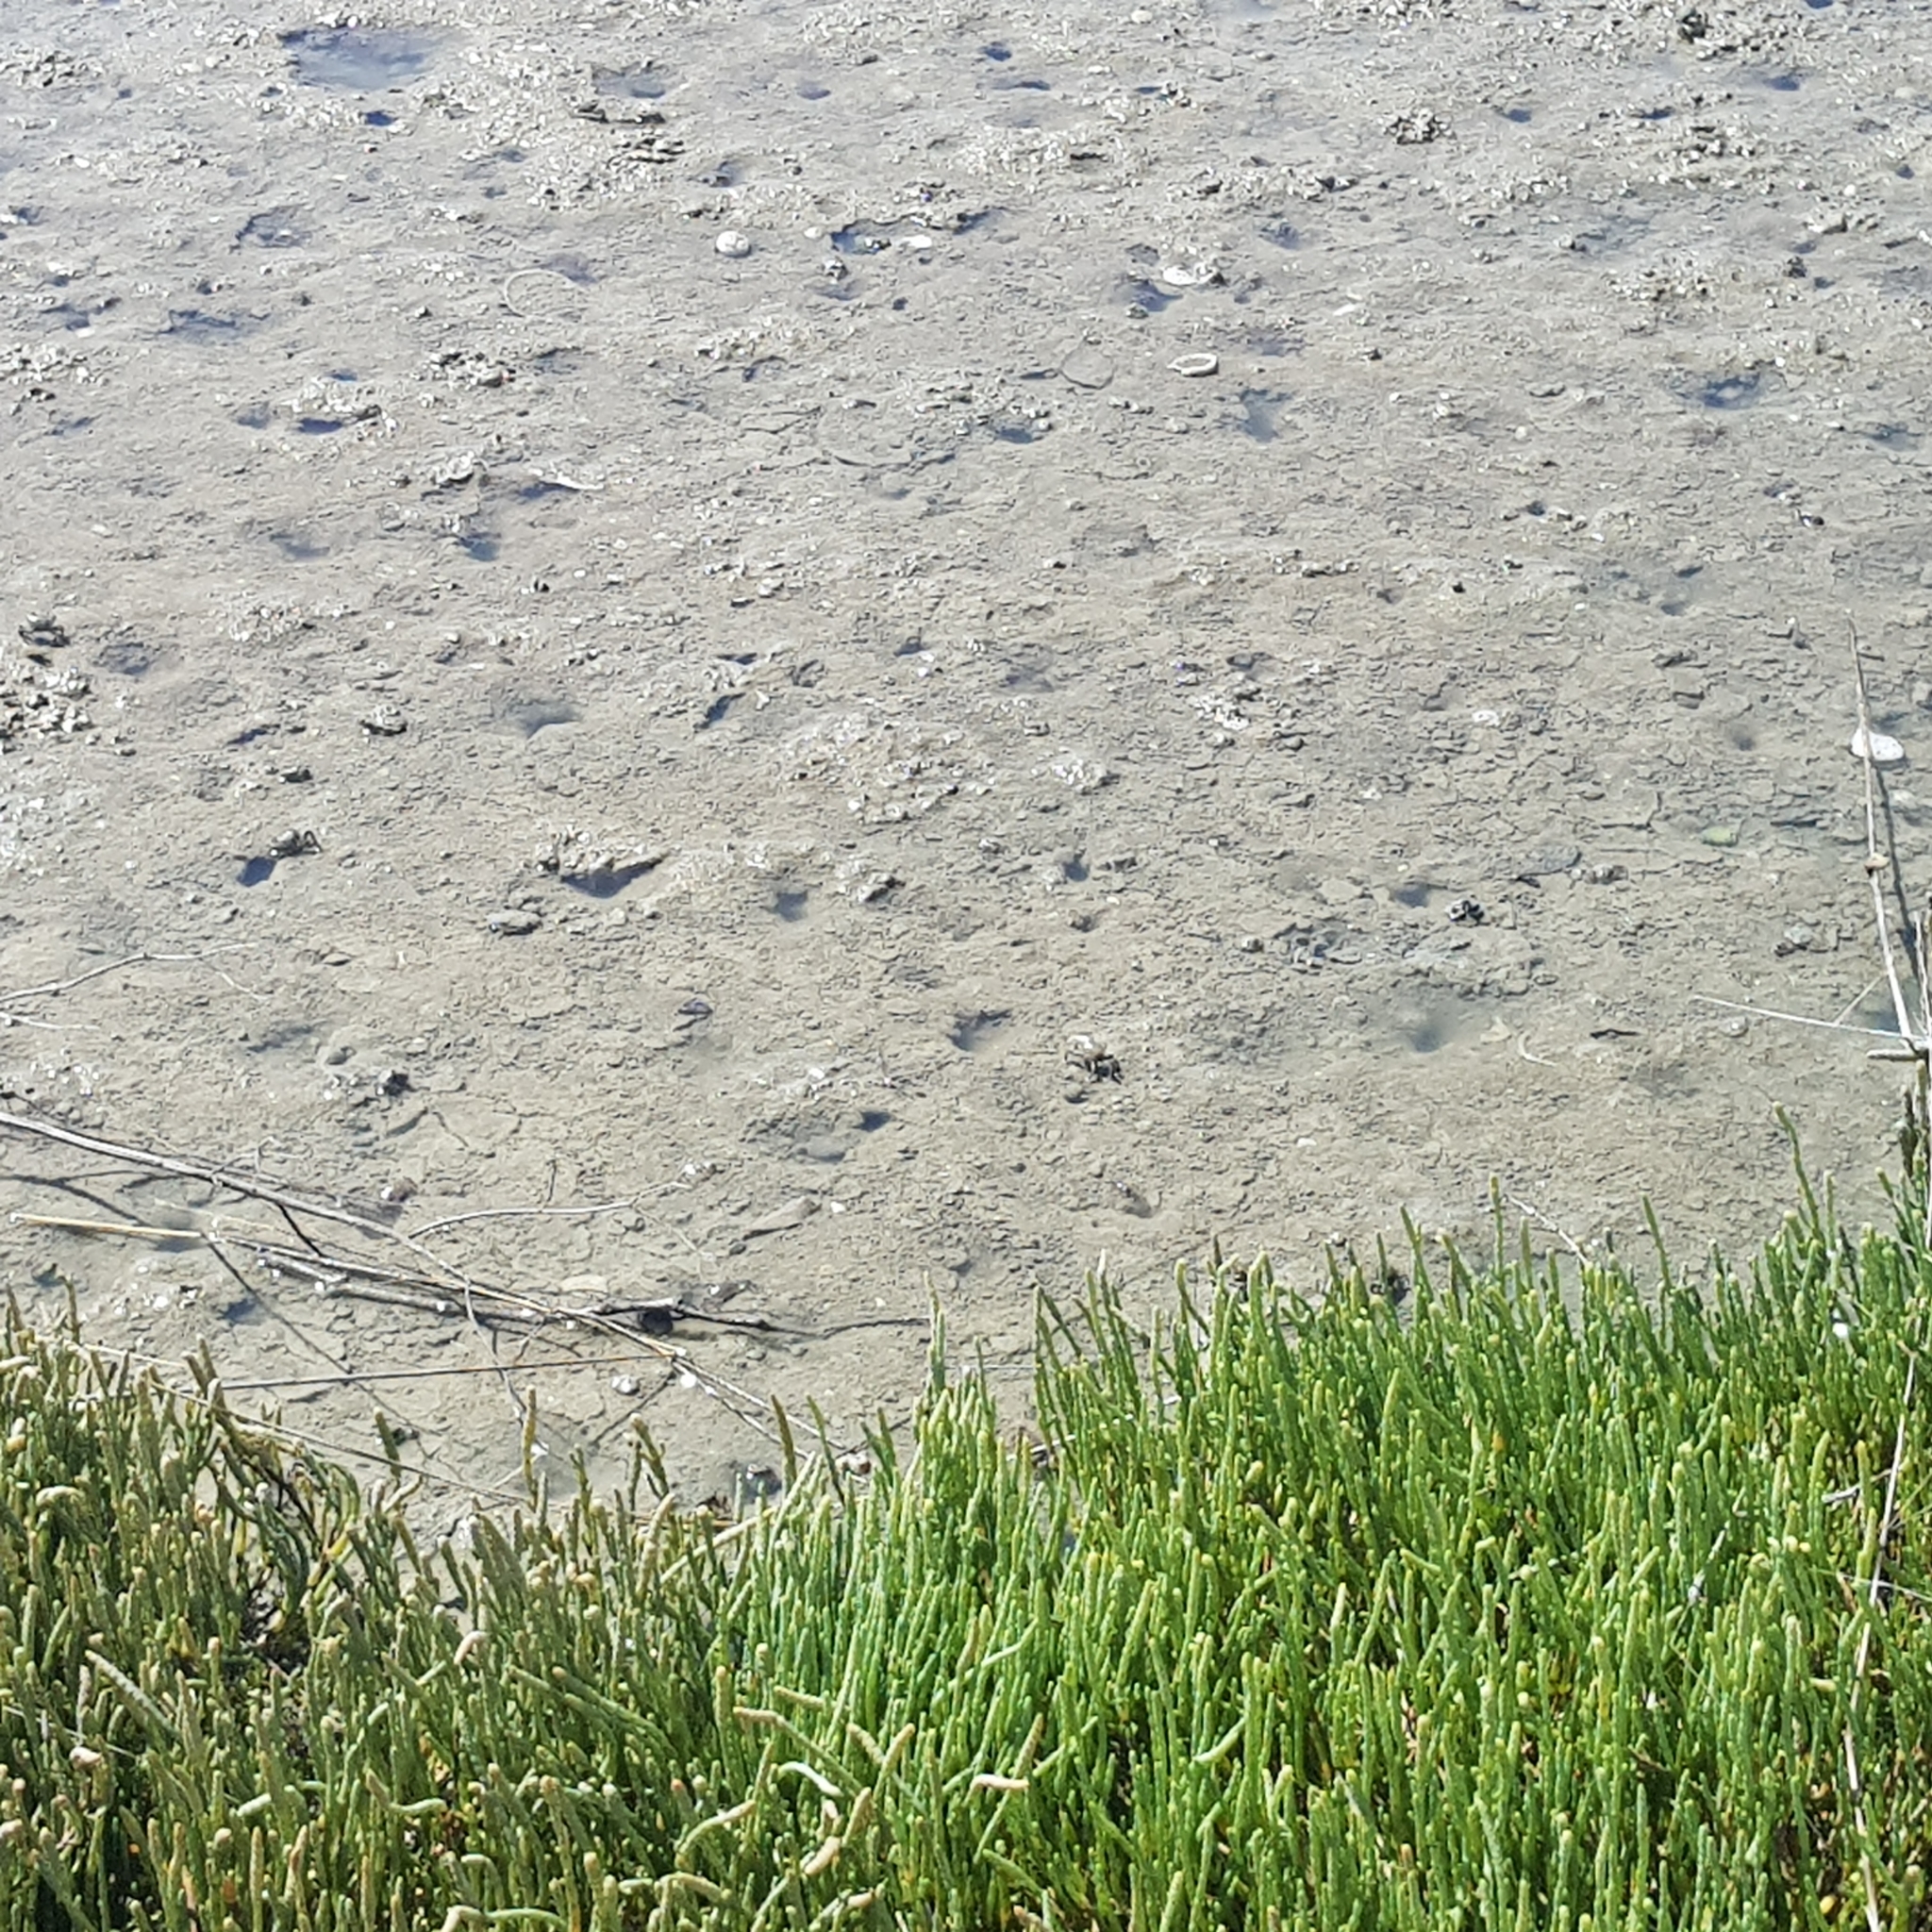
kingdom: Animalia
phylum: Arthropoda
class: Malacostraca
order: Decapoda
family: Varunidae
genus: Austrohelice
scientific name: Austrohelice crassa
